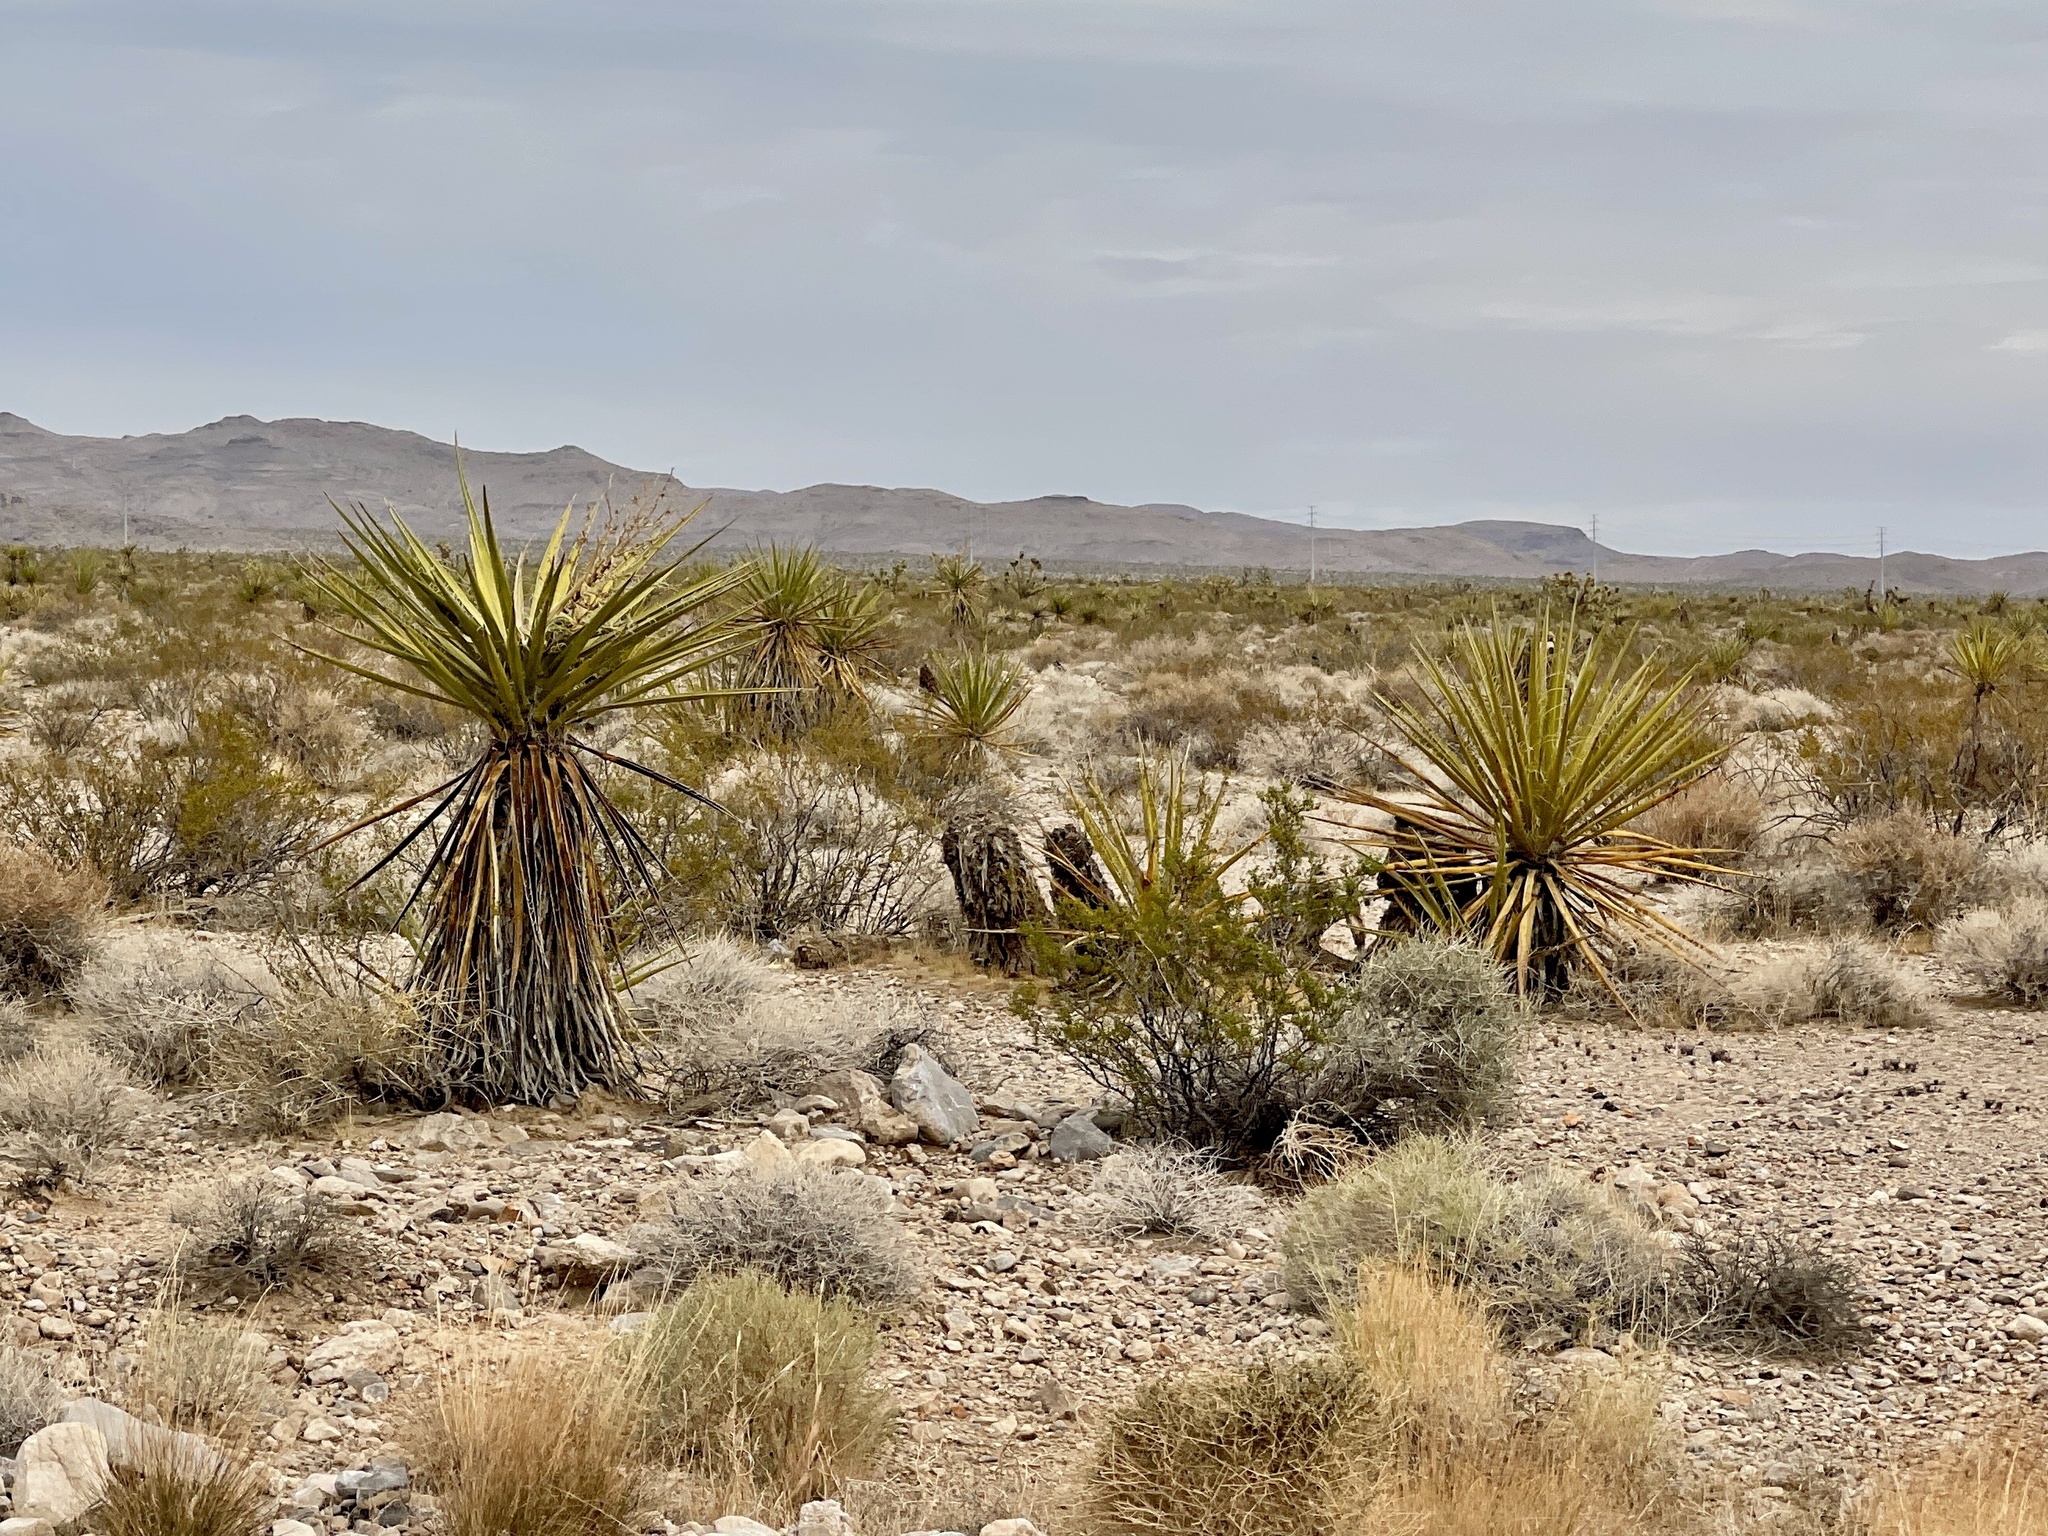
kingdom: Plantae
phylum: Tracheophyta
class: Liliopsida
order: Asparagales
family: Asparagaceae
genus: Yucca
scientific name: Yucca schidigera
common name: Mojave yucca
